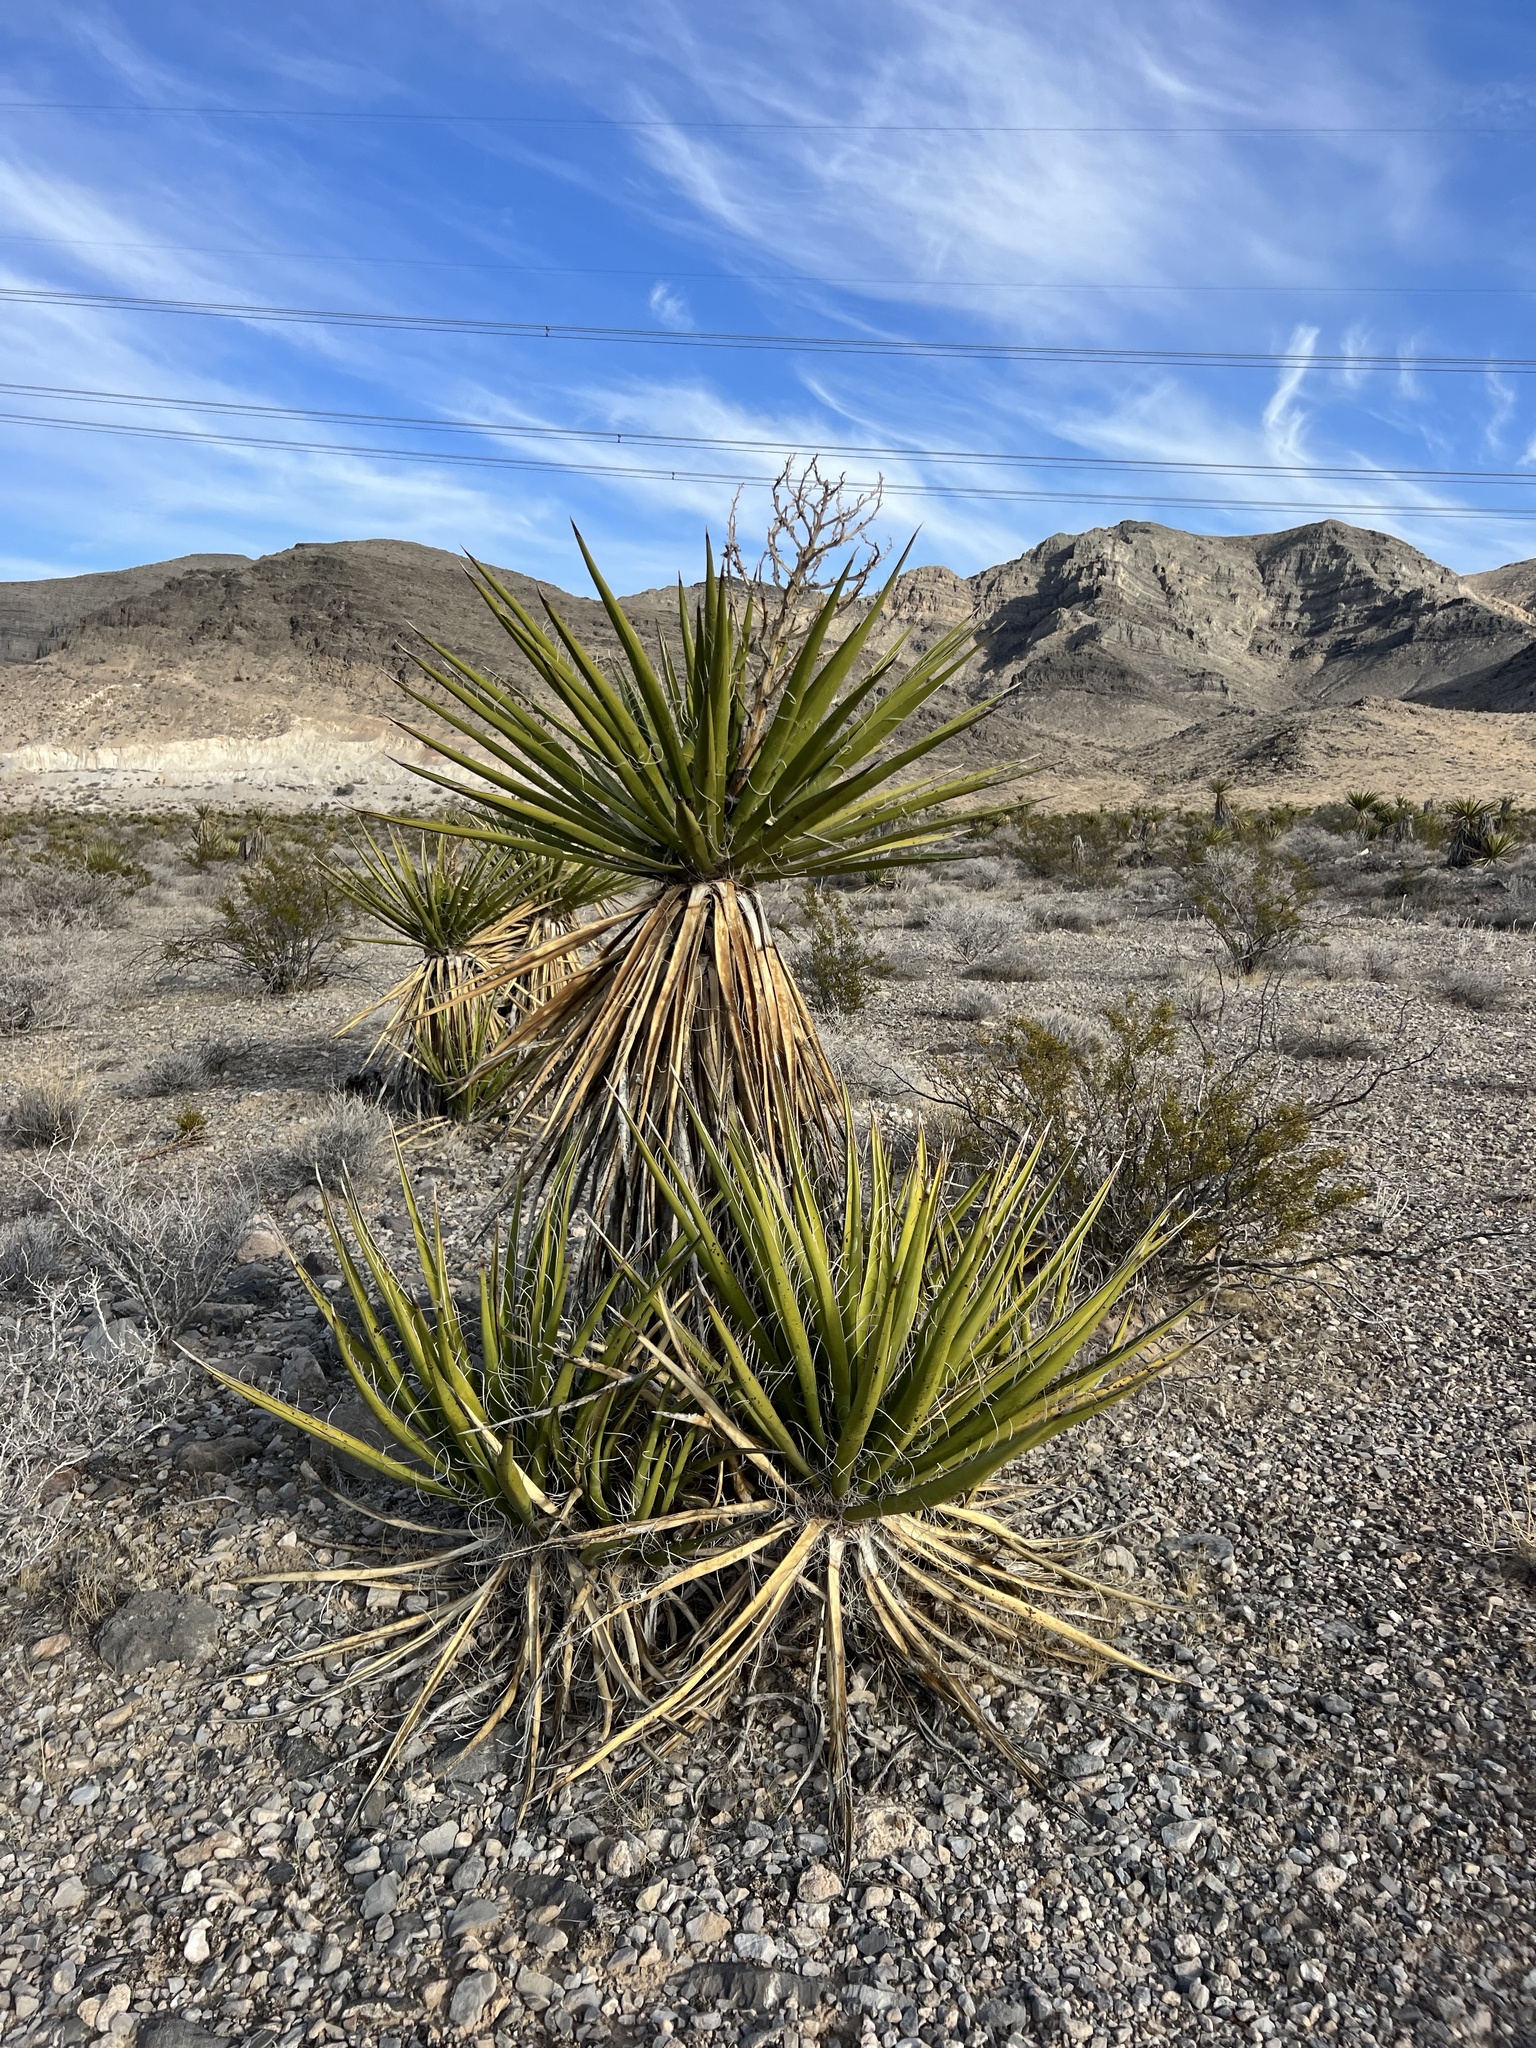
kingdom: Plantae
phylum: Tracheophyta
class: Liliopsida
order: Asparagales
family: Asparagaceae
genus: Yucca
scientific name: Yucca schidigera
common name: Mojave yucca
